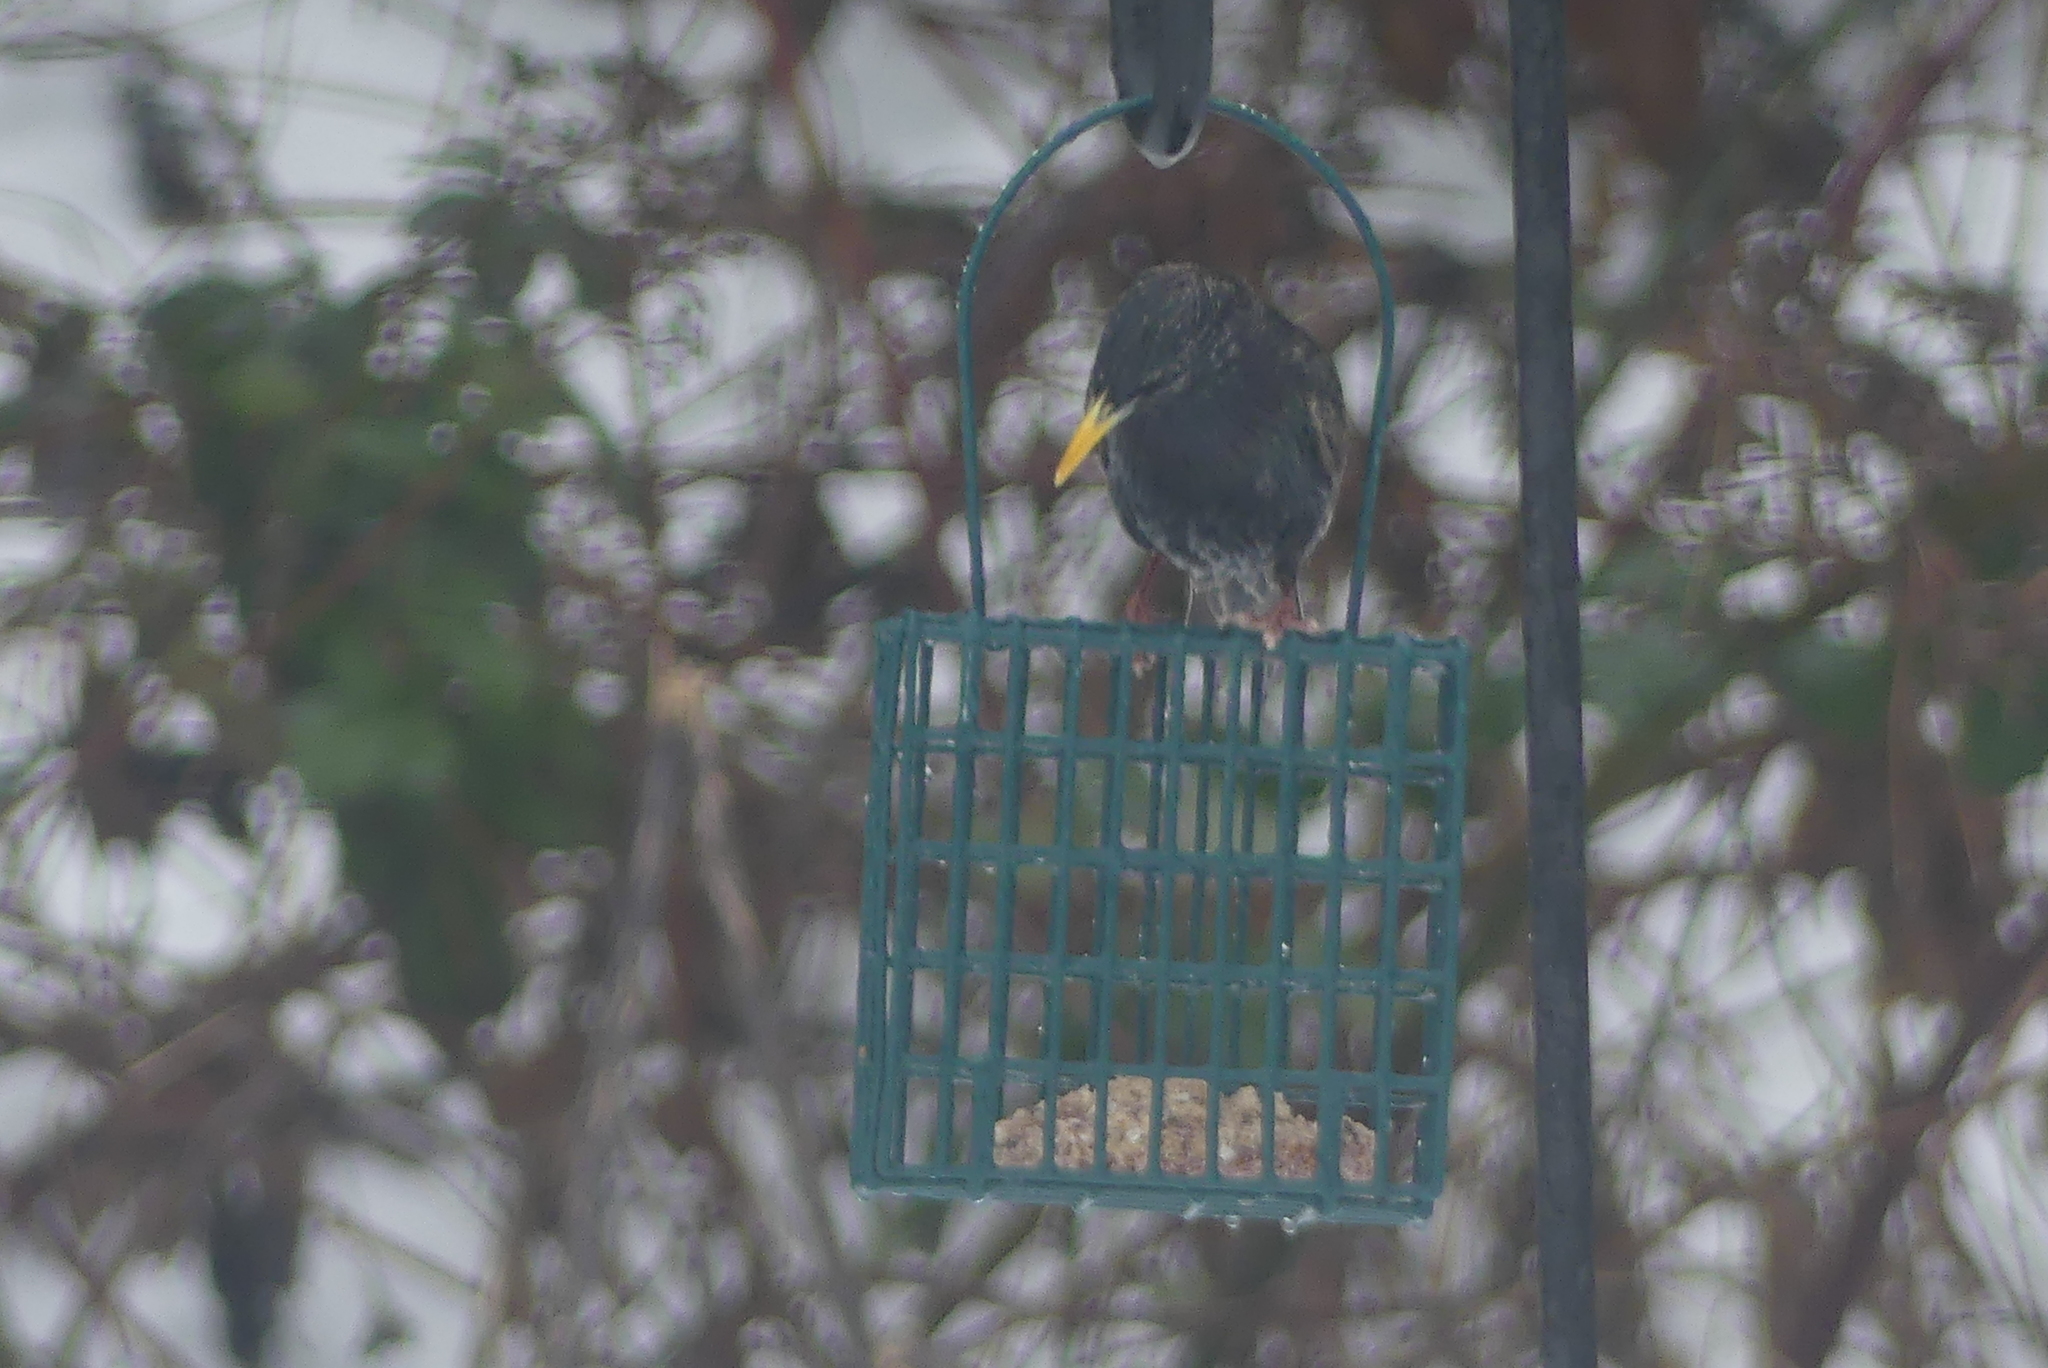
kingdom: Animalia
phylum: Chordata
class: Aves
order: Passeriformes
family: Sturnidae
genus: Sturnus
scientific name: Sturnus vulgaris
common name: Common starling
